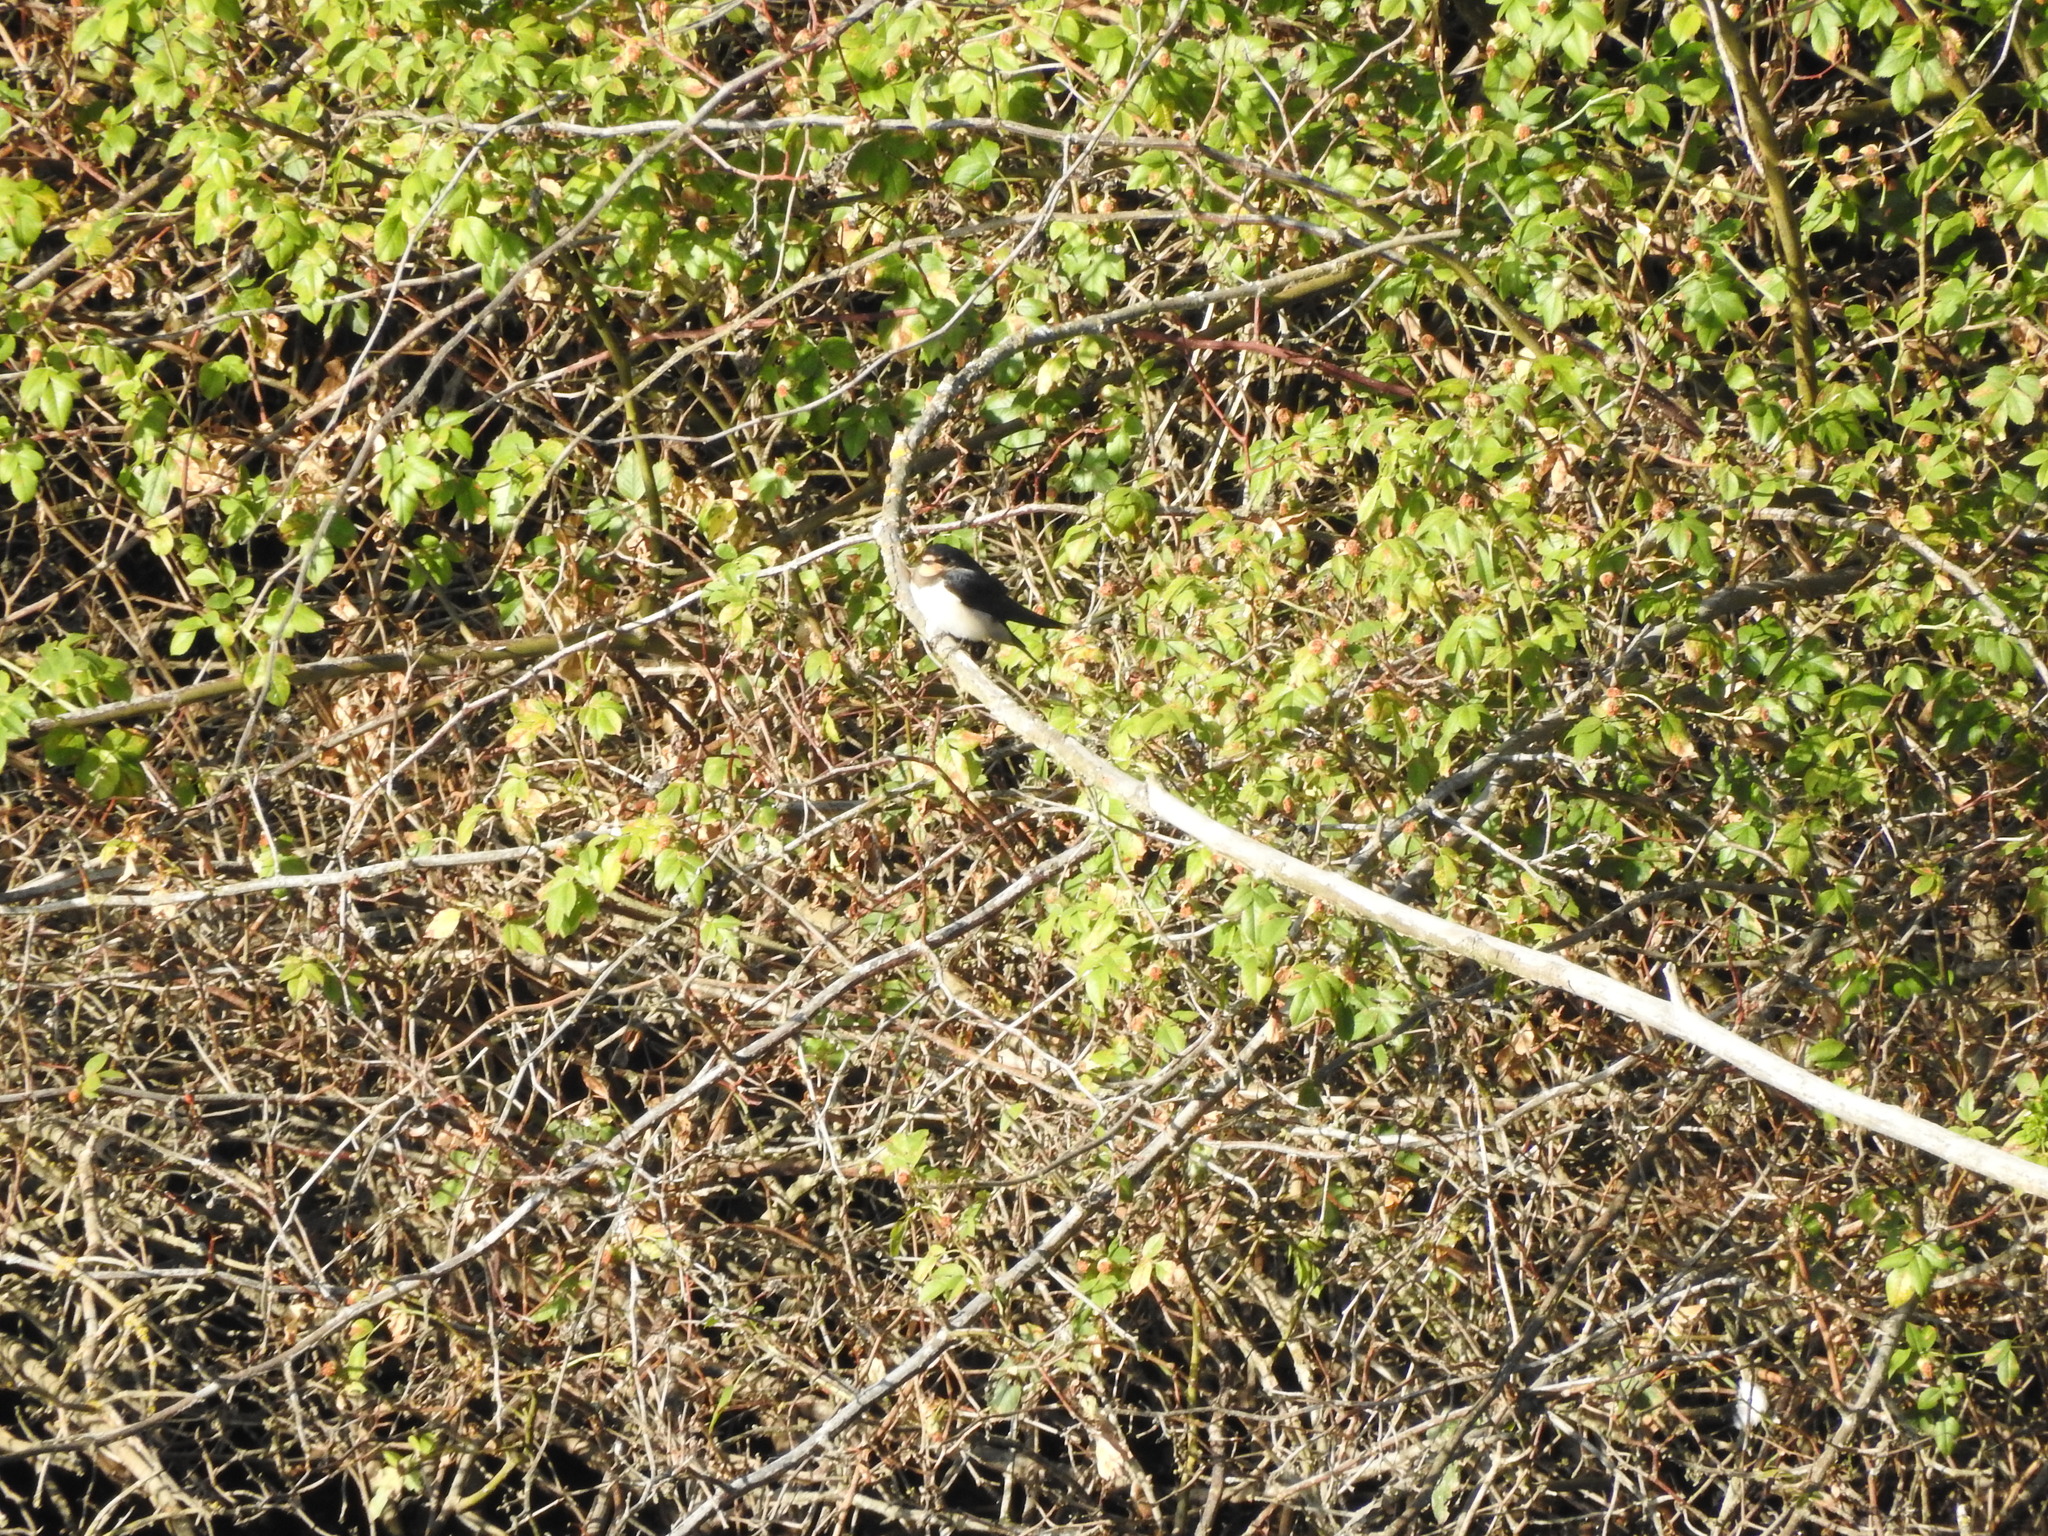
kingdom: Animalia
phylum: Chordata
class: Aves
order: Passeriformes
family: Hirundinidae
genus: Hirundo
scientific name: Hirundo rustica
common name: Barn swallow
